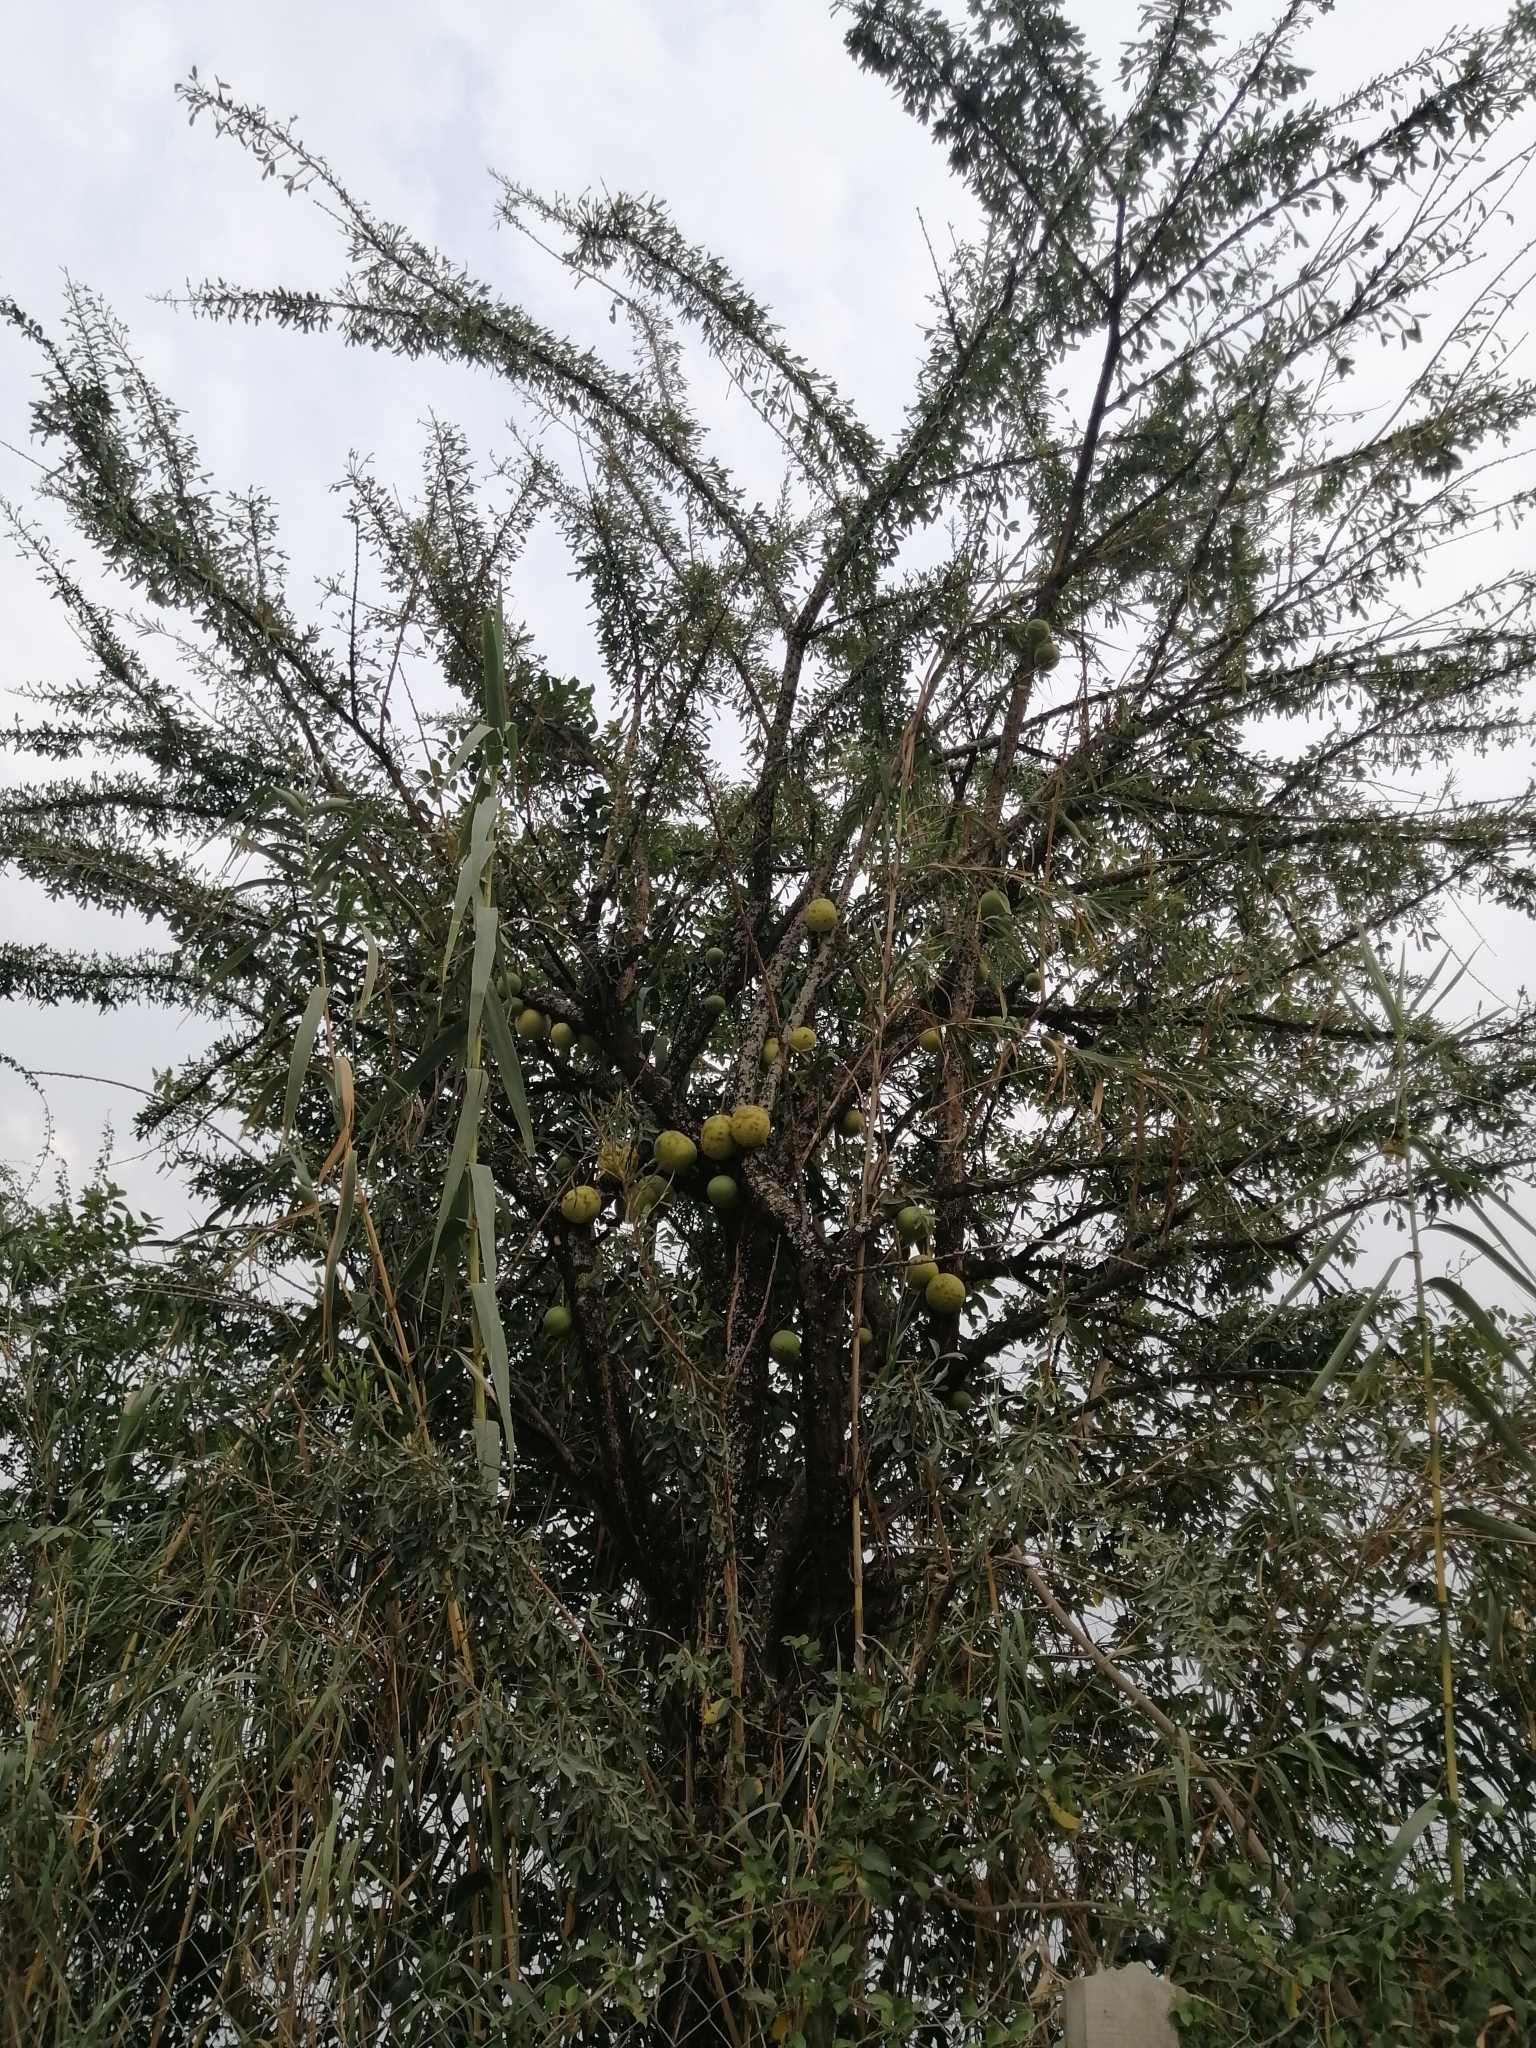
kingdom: Plantae
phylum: Tracheophyta
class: Magnoliopsida
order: Lamiales
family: Bignoniaceae
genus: Crescentia
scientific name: Crescentia alata
